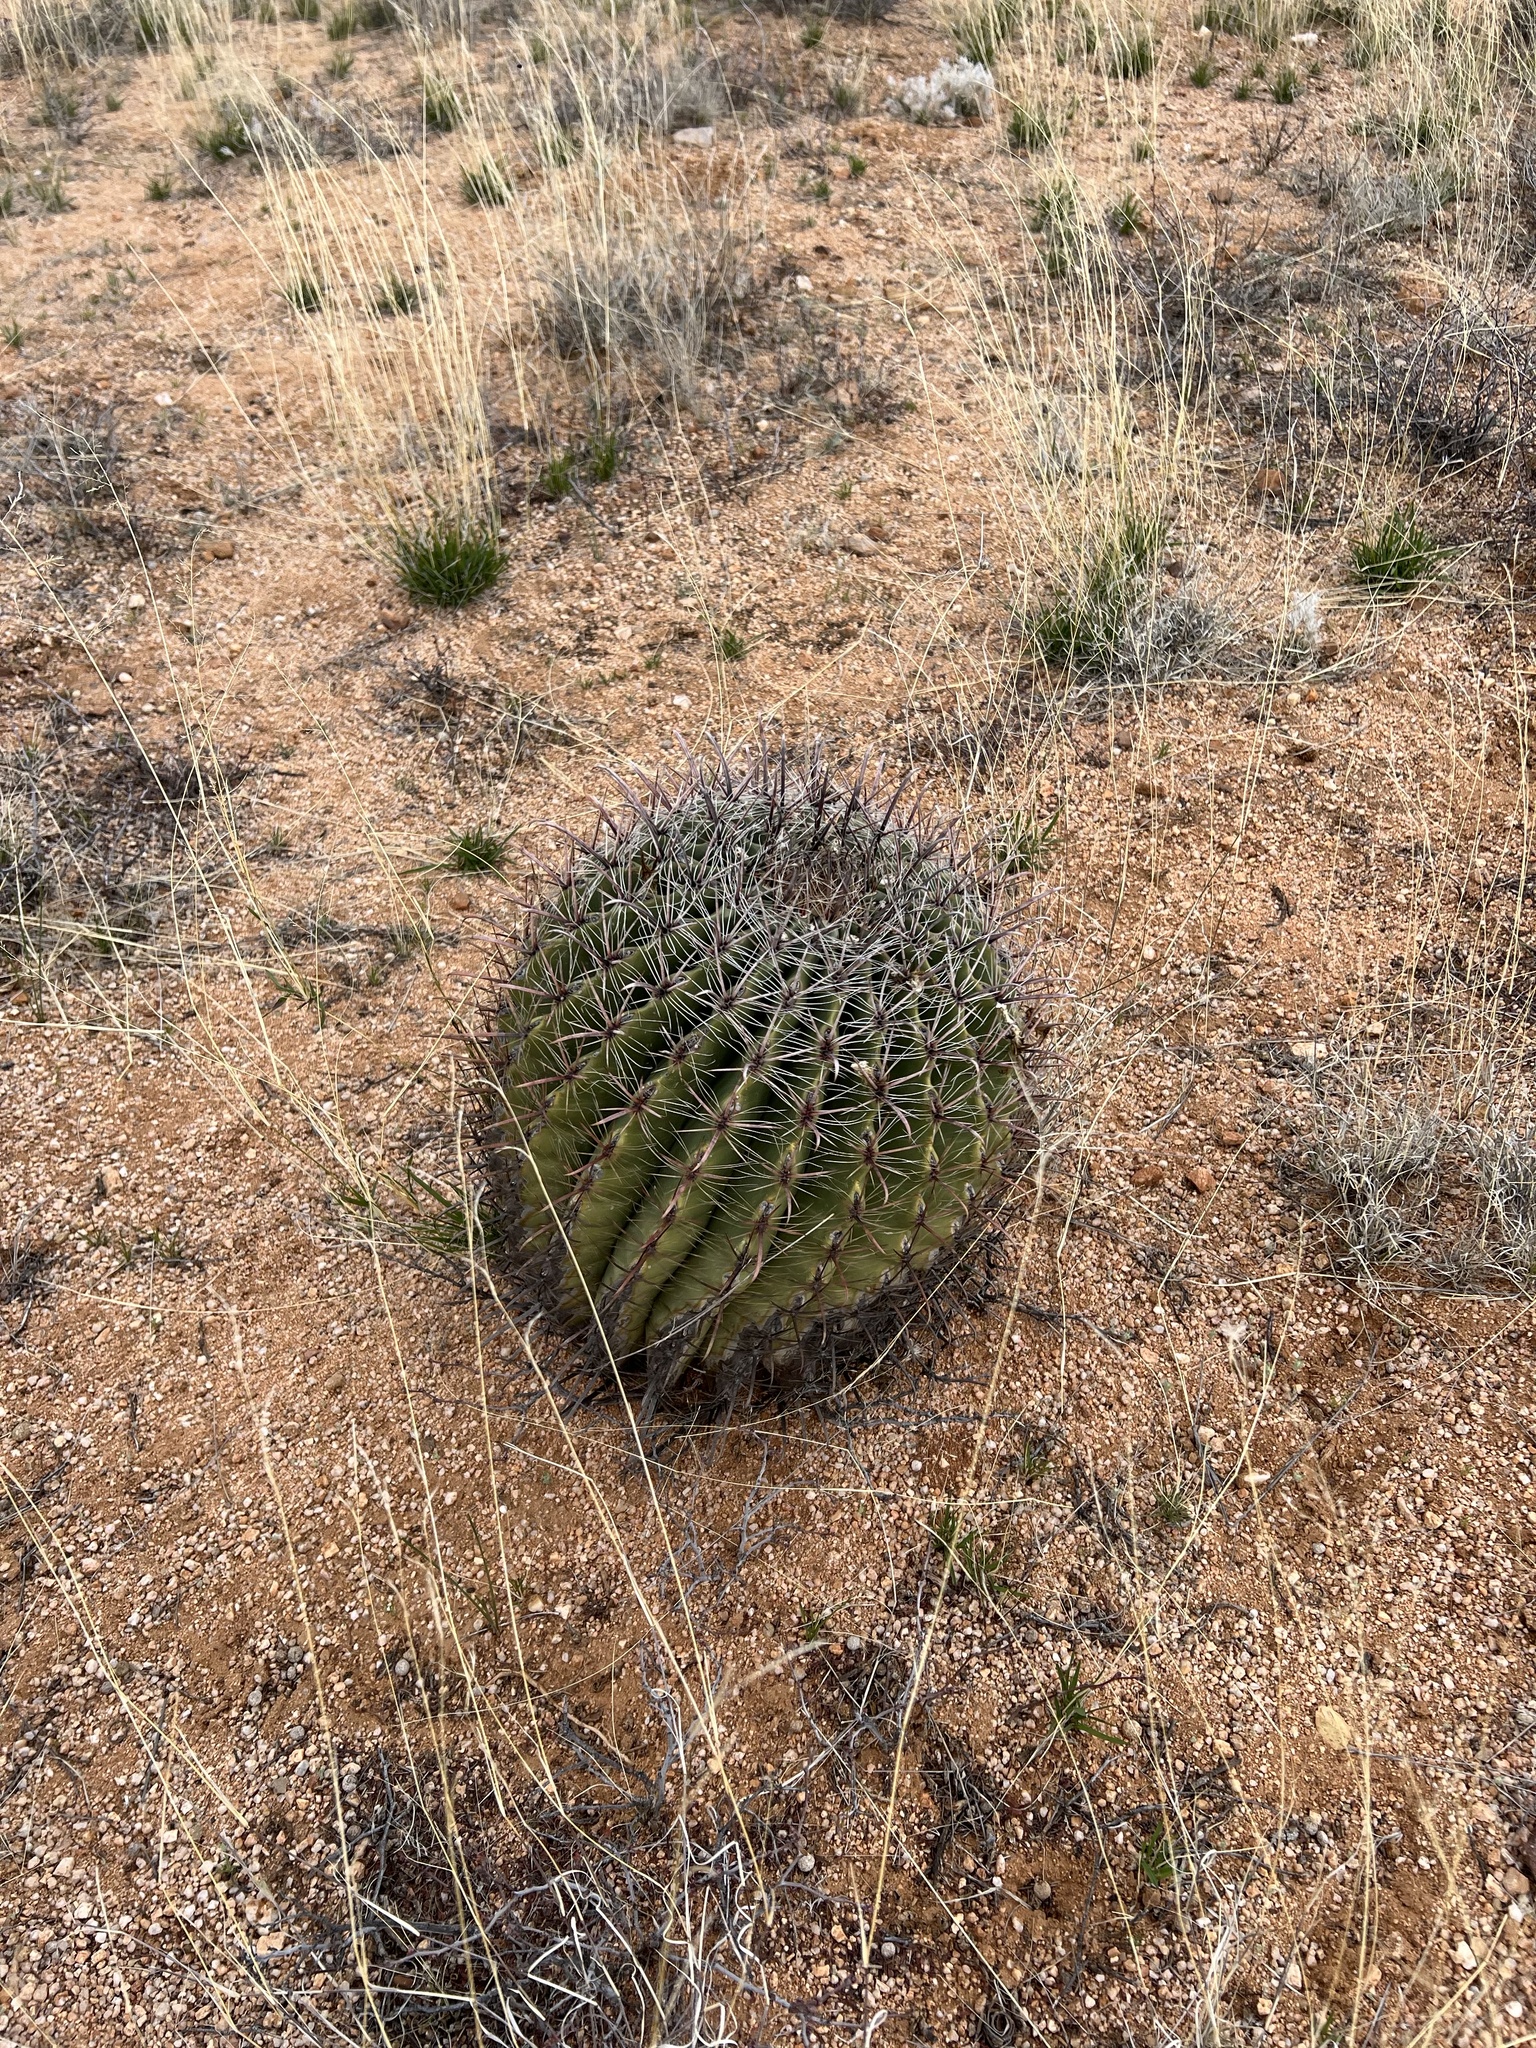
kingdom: Plantae
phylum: Tracheophyta
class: Magnoliopsida
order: Caryophyllales
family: Cactaceae
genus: Ferocactus
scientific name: Ferocactus wislizeni
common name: Candy barrel cactus
